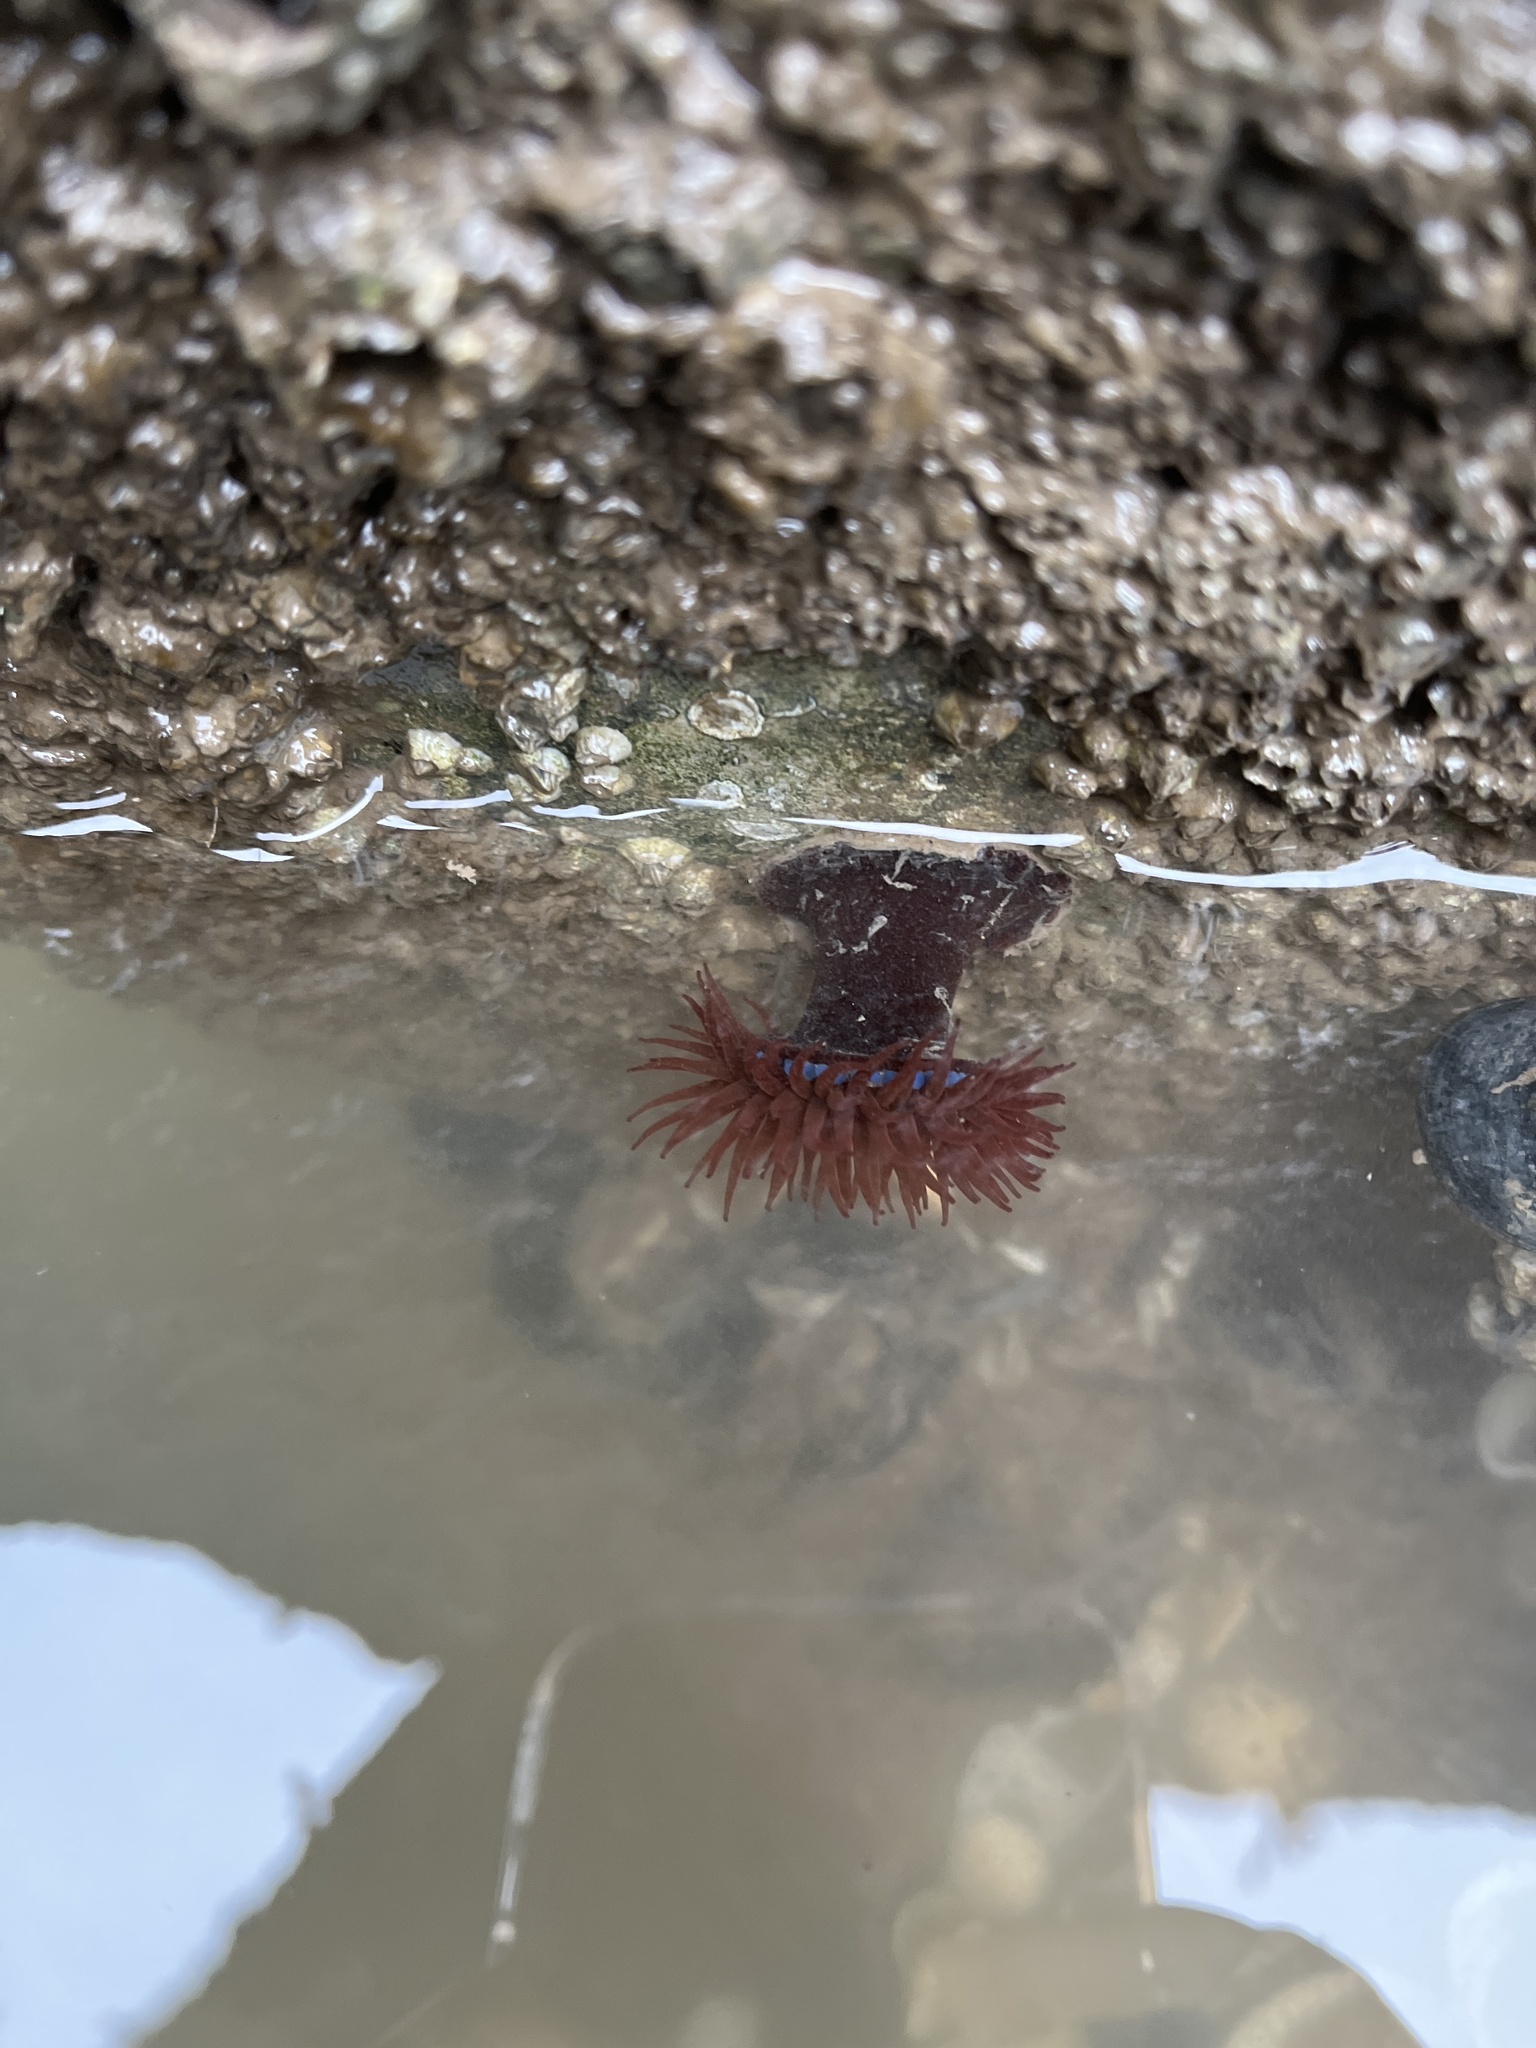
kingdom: Animalia
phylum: Cnidaria
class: Anthozoa
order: Actiniaria
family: Actiniidae
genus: Actinia
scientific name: Actinia equina
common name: Beadlet anemone
